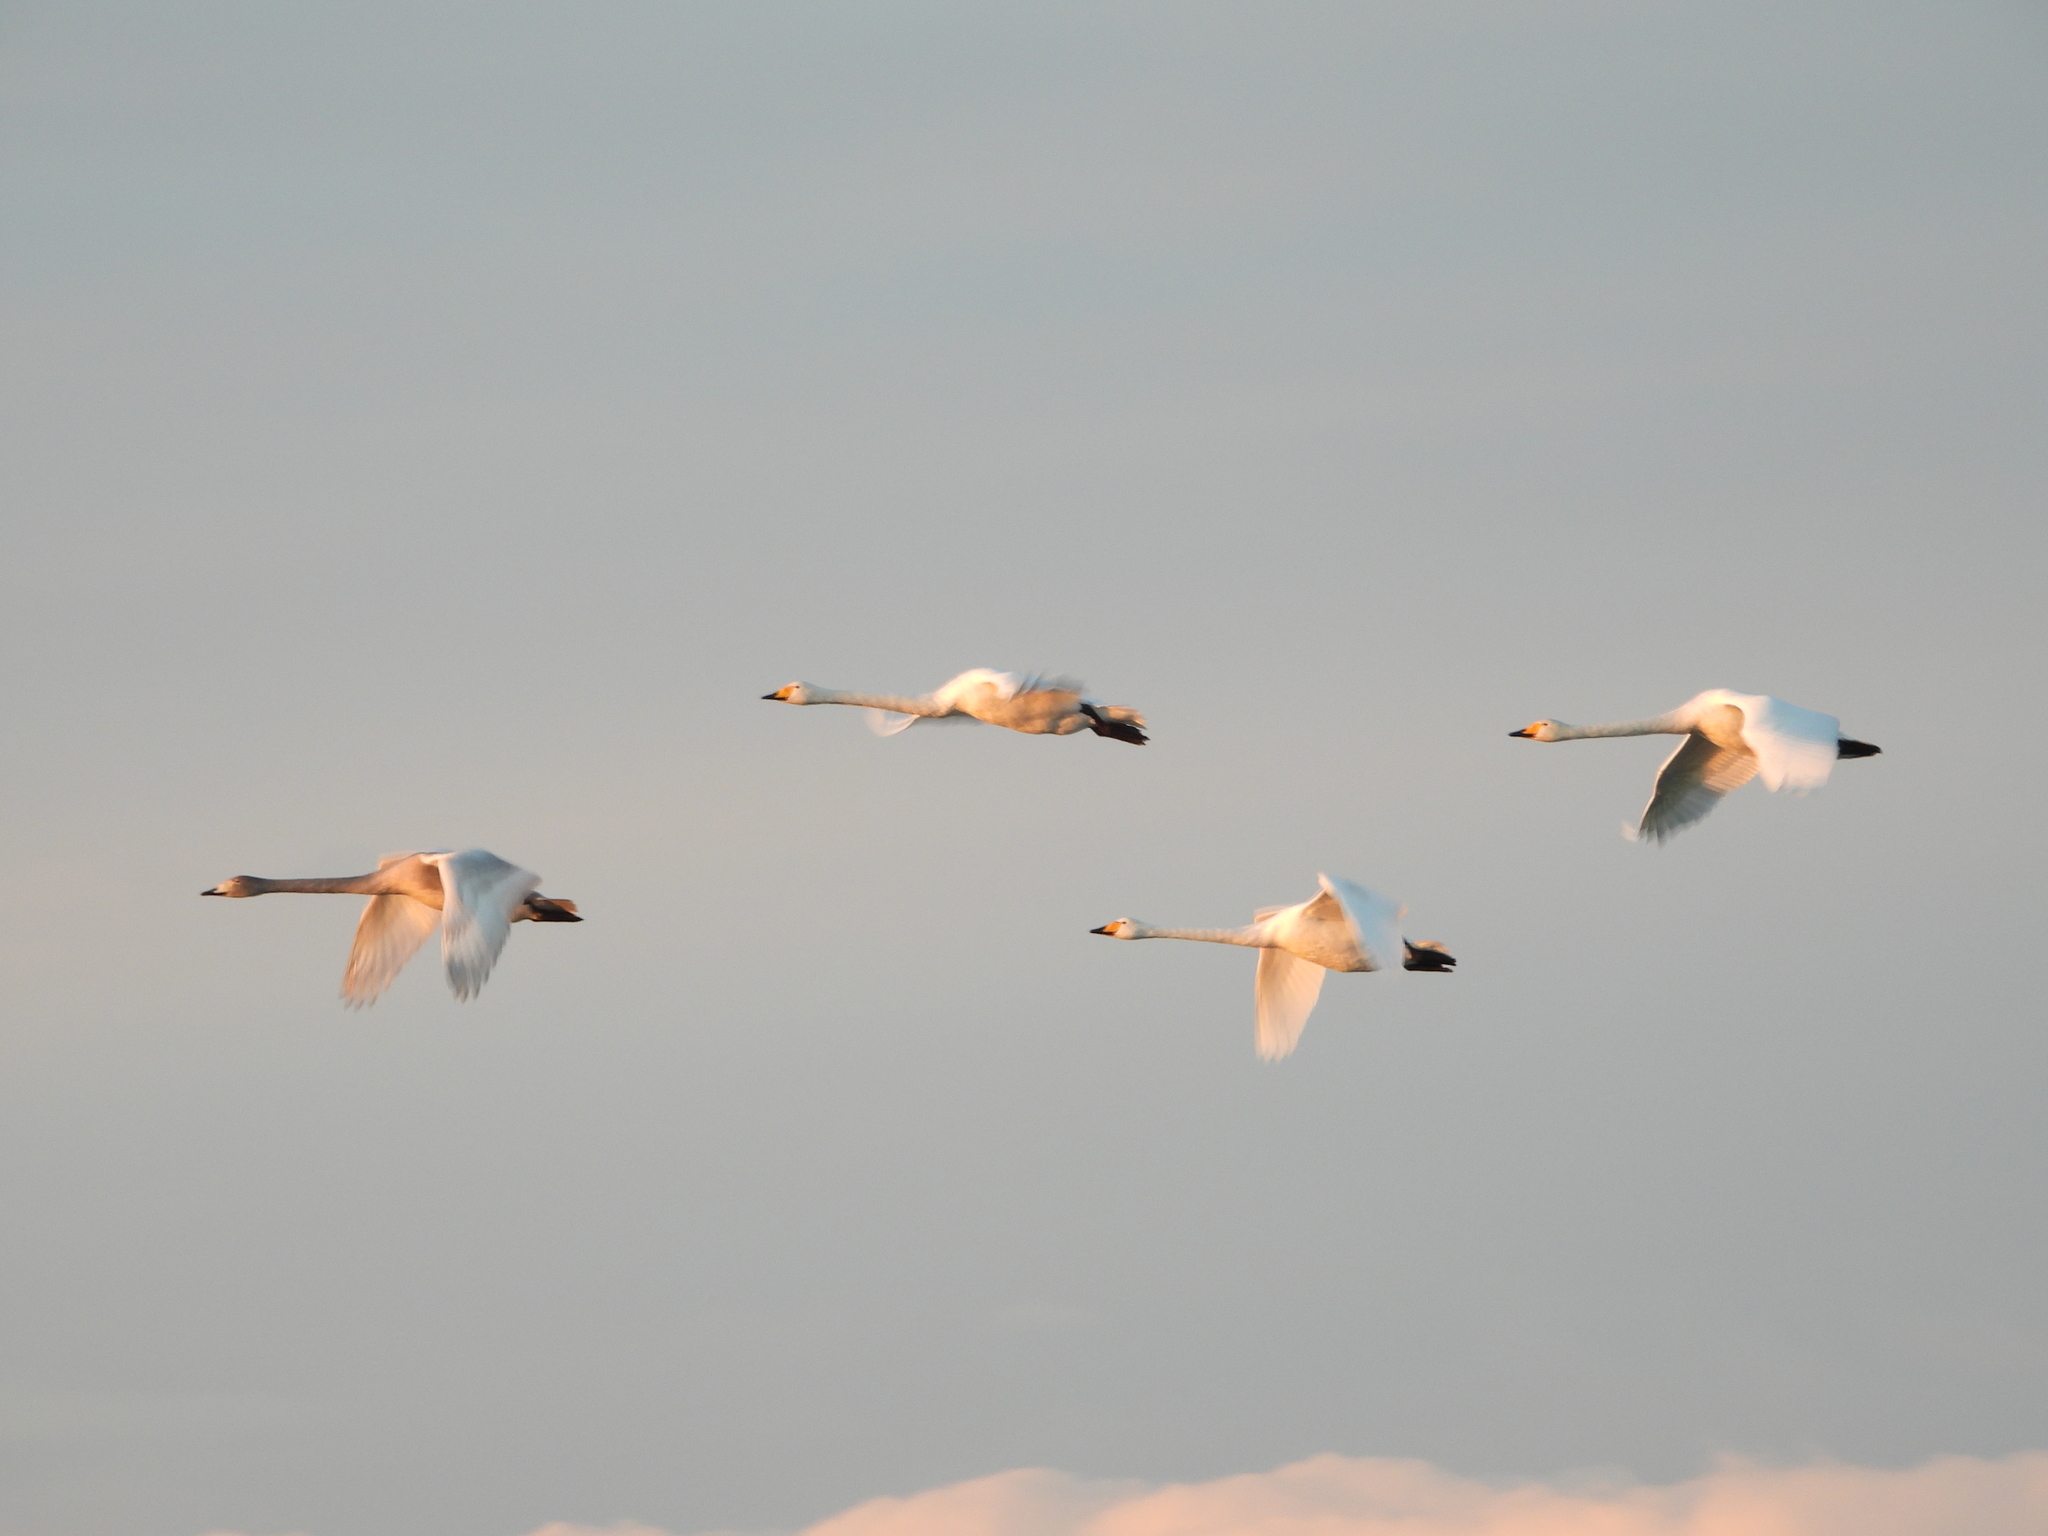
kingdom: Animalia
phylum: Chordata
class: Aves
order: Anseriformes
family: Anatidae
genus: Cygnus
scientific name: Cygnus cygnus
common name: Whooper swan
